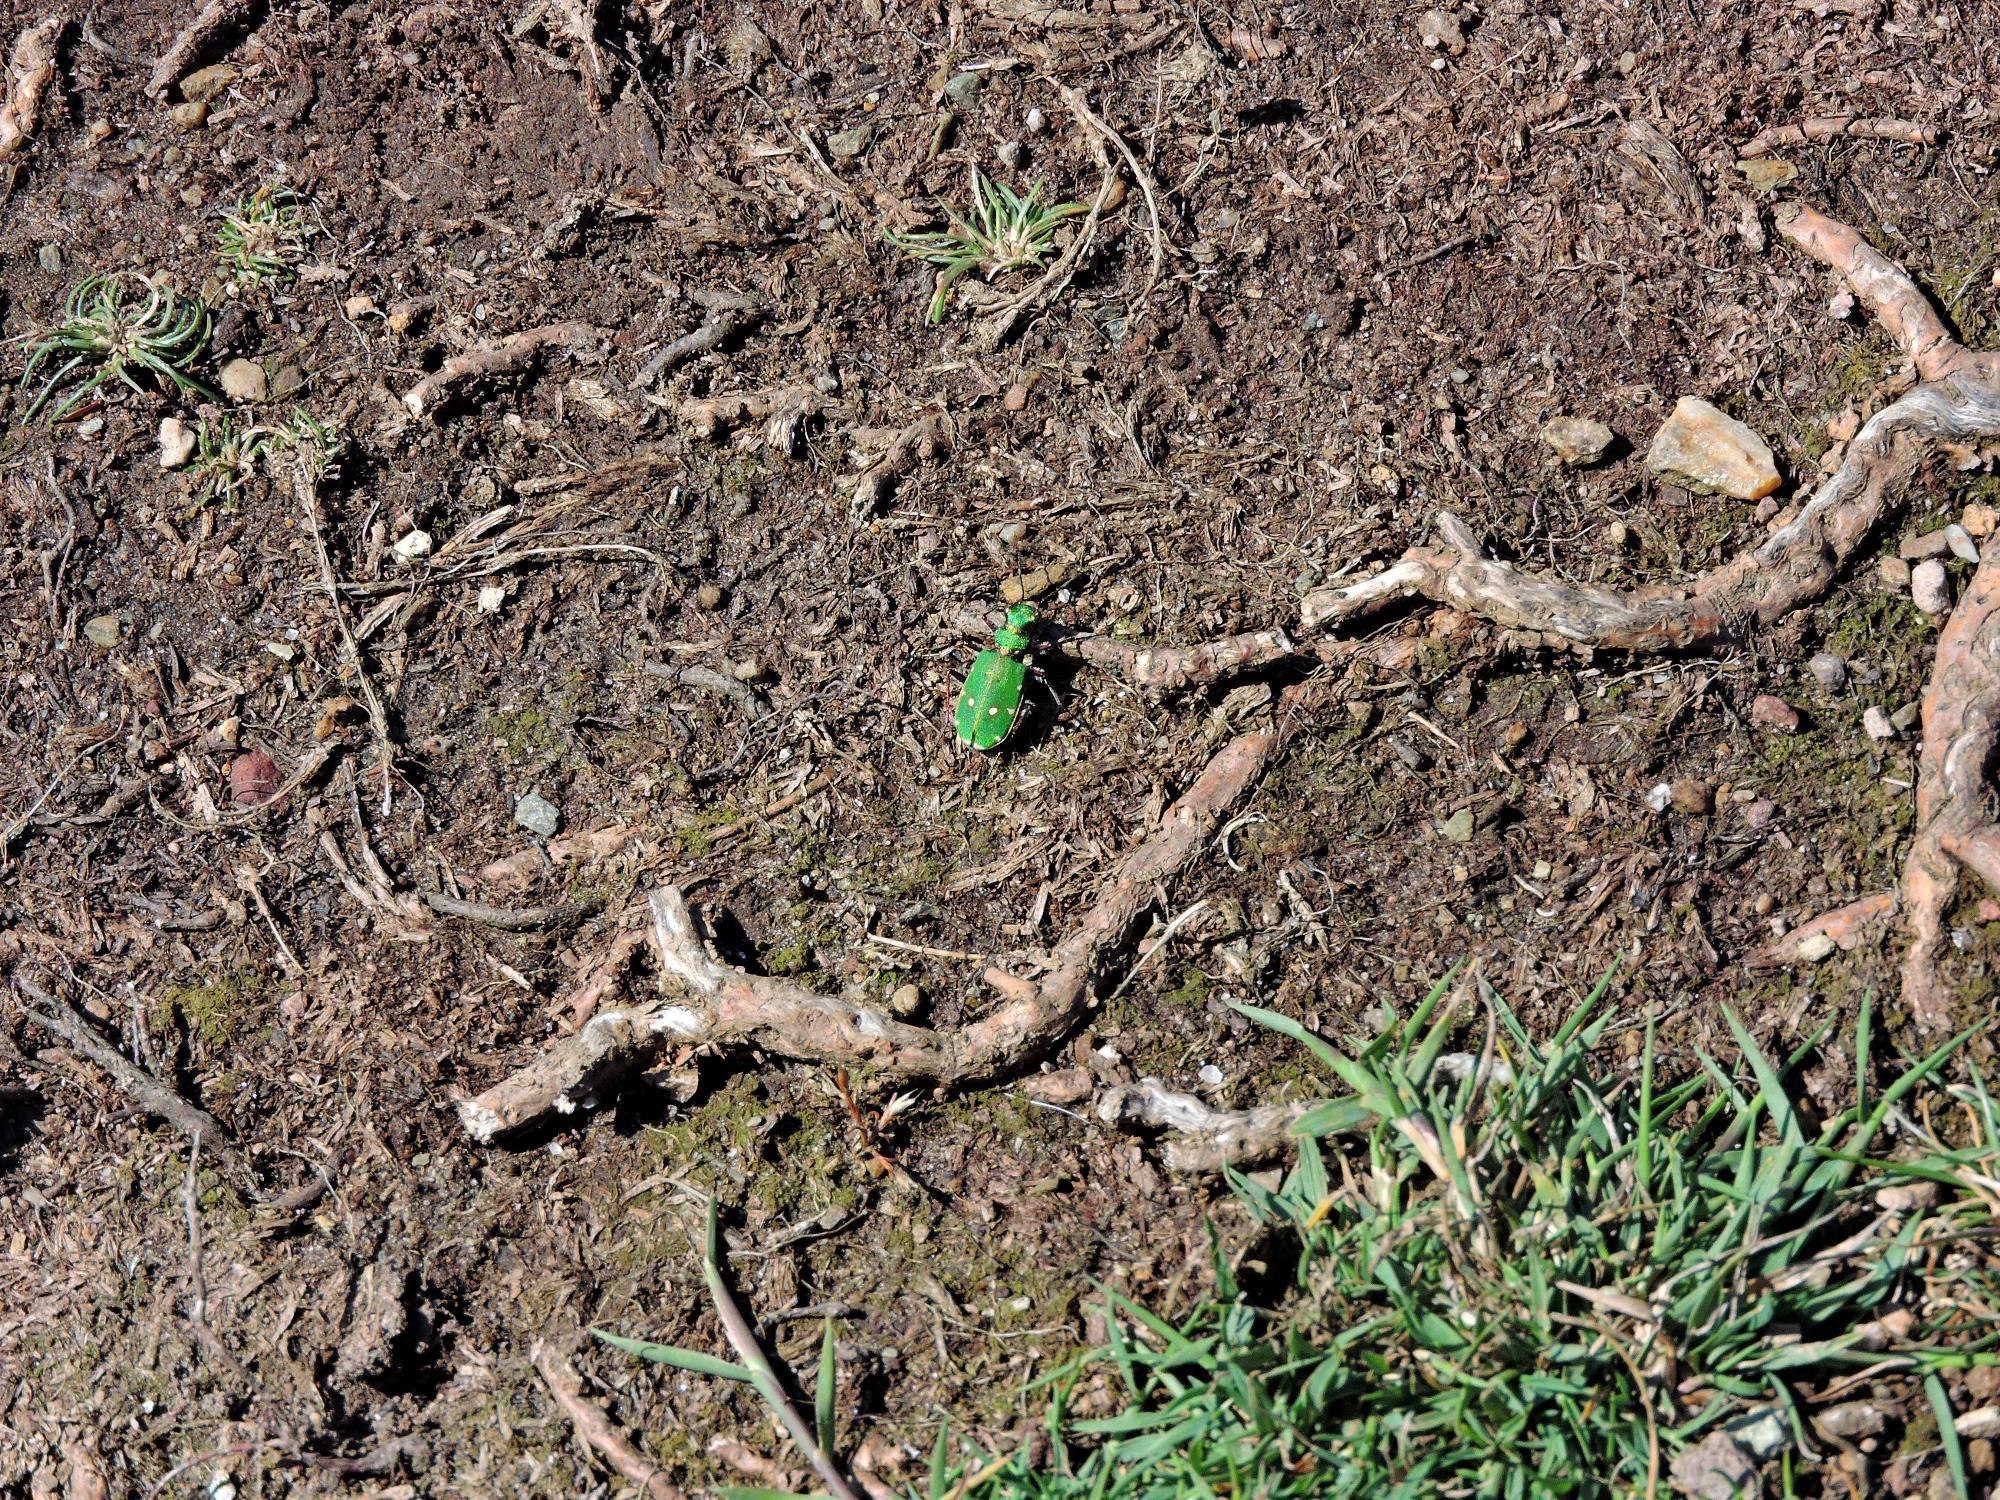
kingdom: Animalia
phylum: Arthropoda
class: Insecta
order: Coleoptera
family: Carabidae
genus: Cicindela
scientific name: Cicindela campestris
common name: Common tiger beetle
